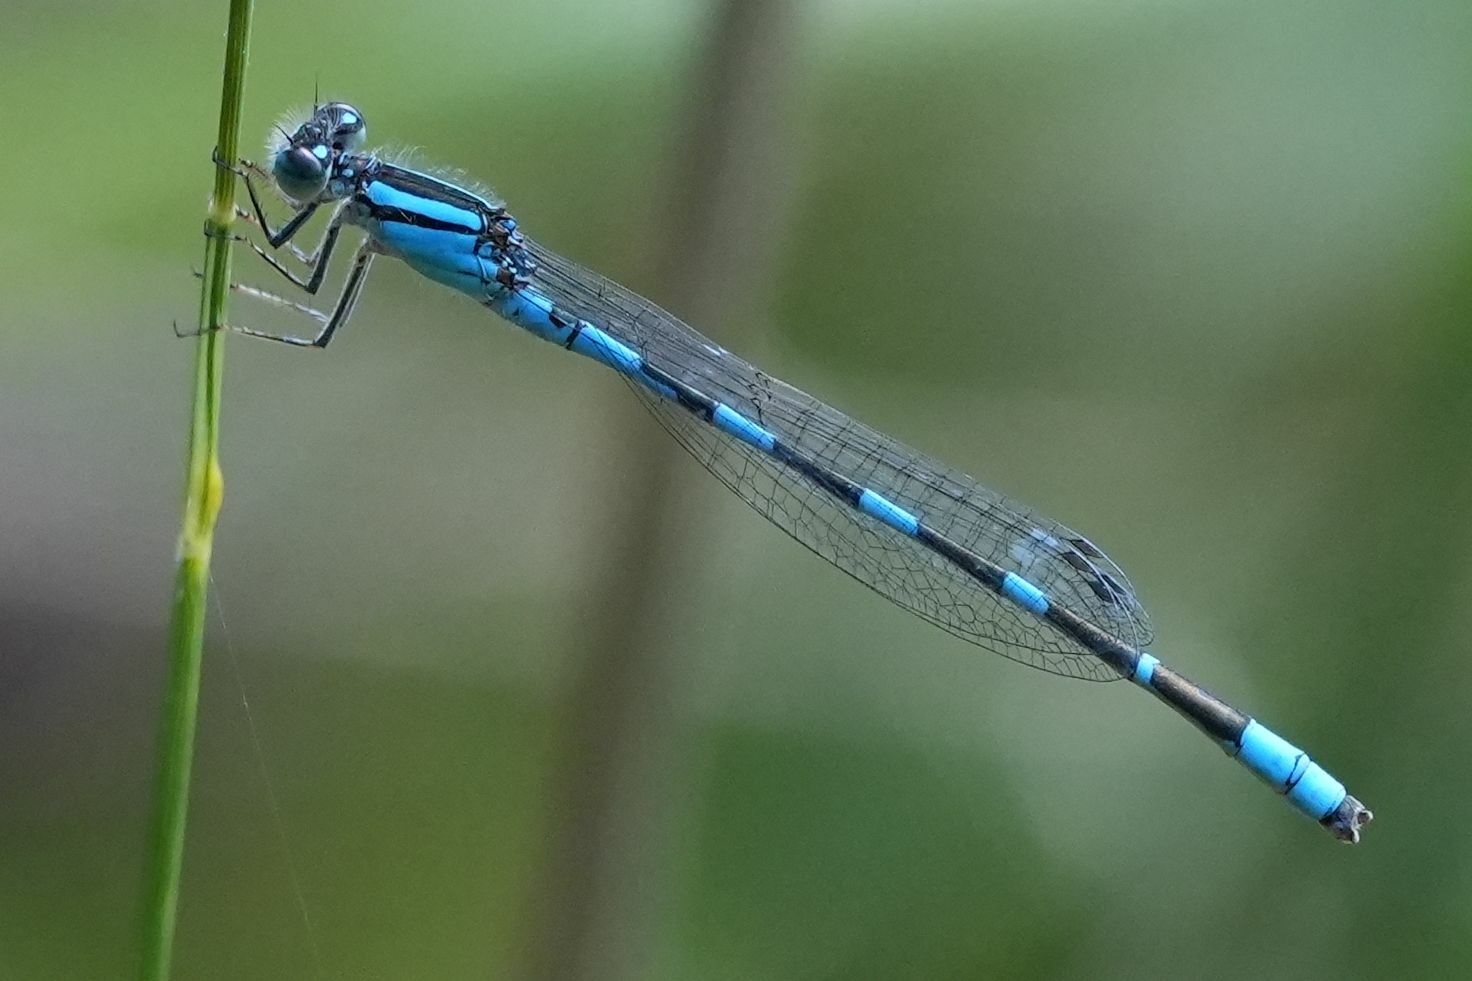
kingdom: Animalia
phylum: Arthropoda
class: Insecta
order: Odonata
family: Coenagrionidae
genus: Enallagma
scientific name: Enallagma carunculatum
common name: Tule bluet
